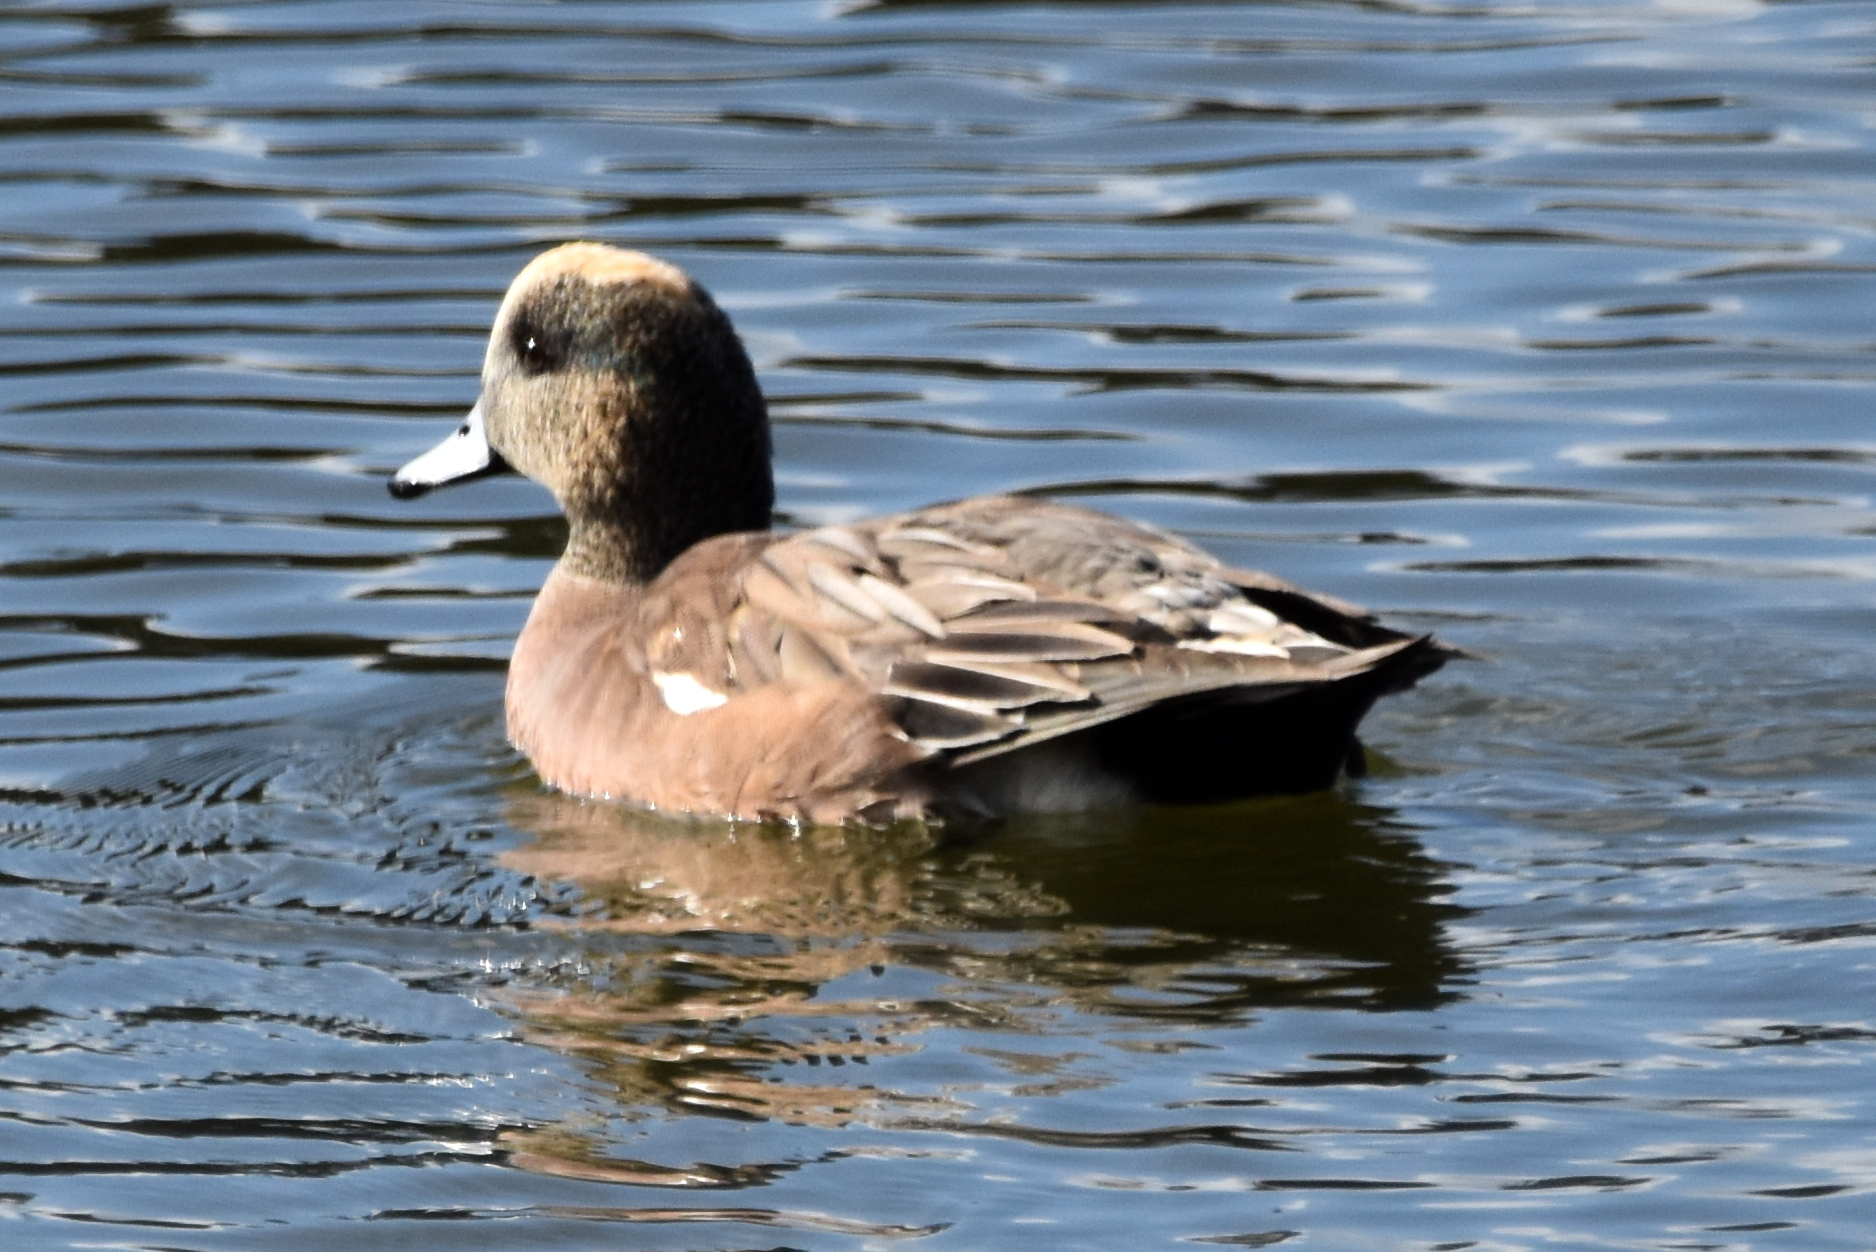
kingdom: Animalia
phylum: Chordata
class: Aves
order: Anseriformes
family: Anatidae
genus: Mareca
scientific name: Mareca americana
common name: American wigeon
